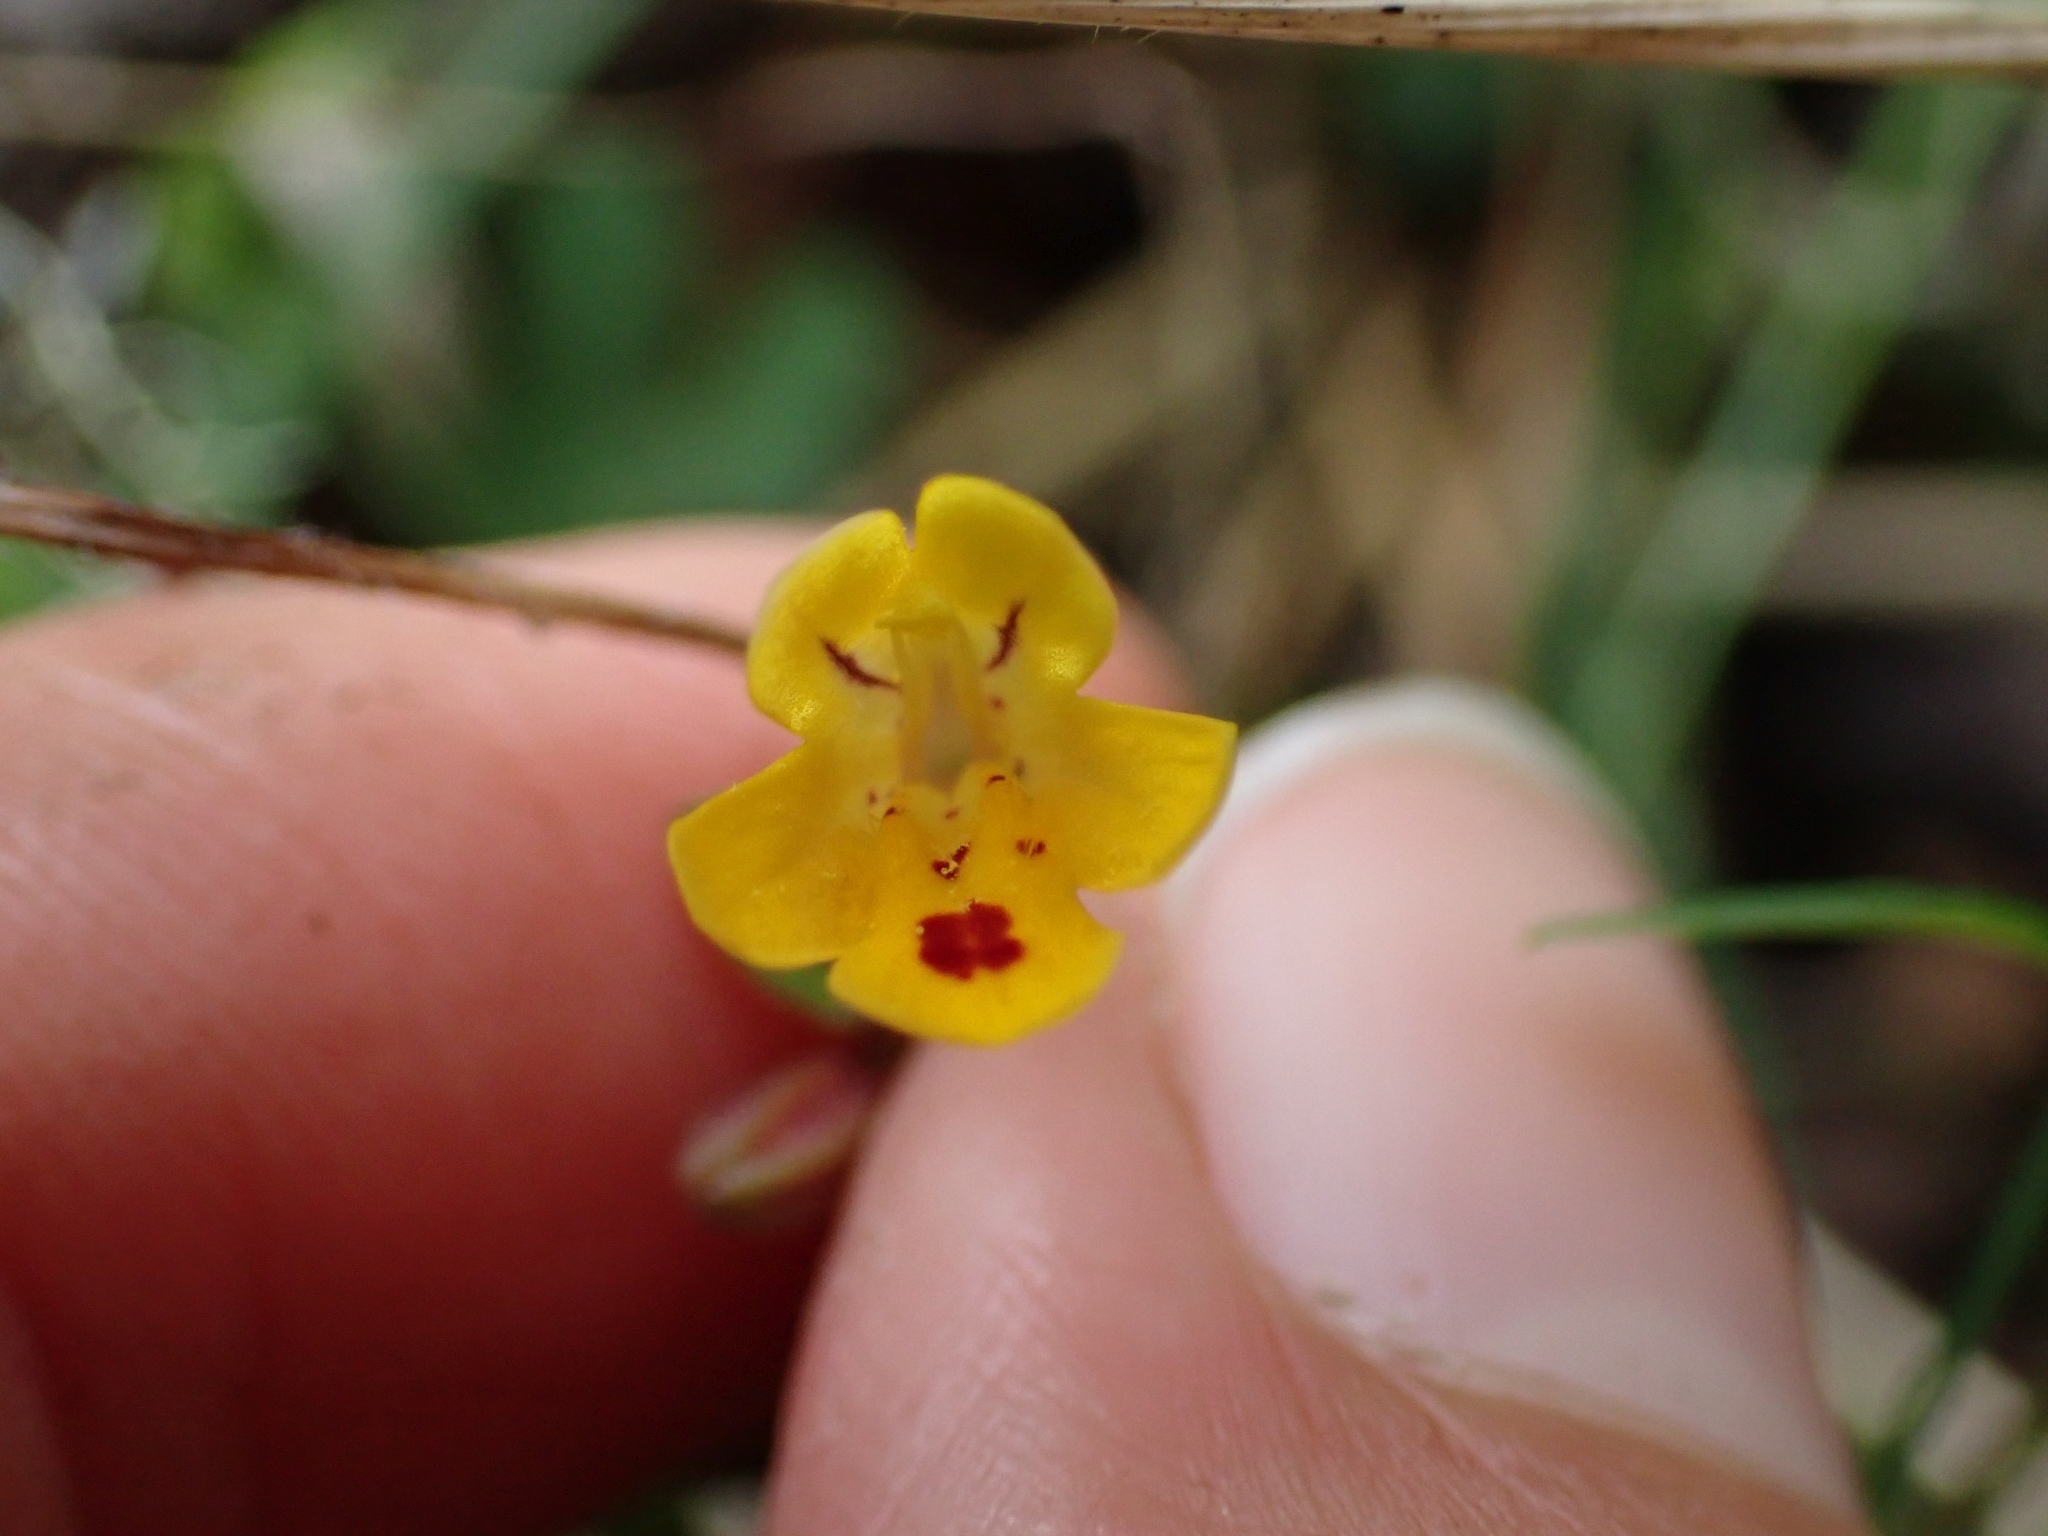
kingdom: Plantae
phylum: Tracheophyta
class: Magnoliopsida
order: Lamiales
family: Phrymaceae
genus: Erythranthe
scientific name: Erythranthe alsinoides
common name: Chickweed monkeyflower
